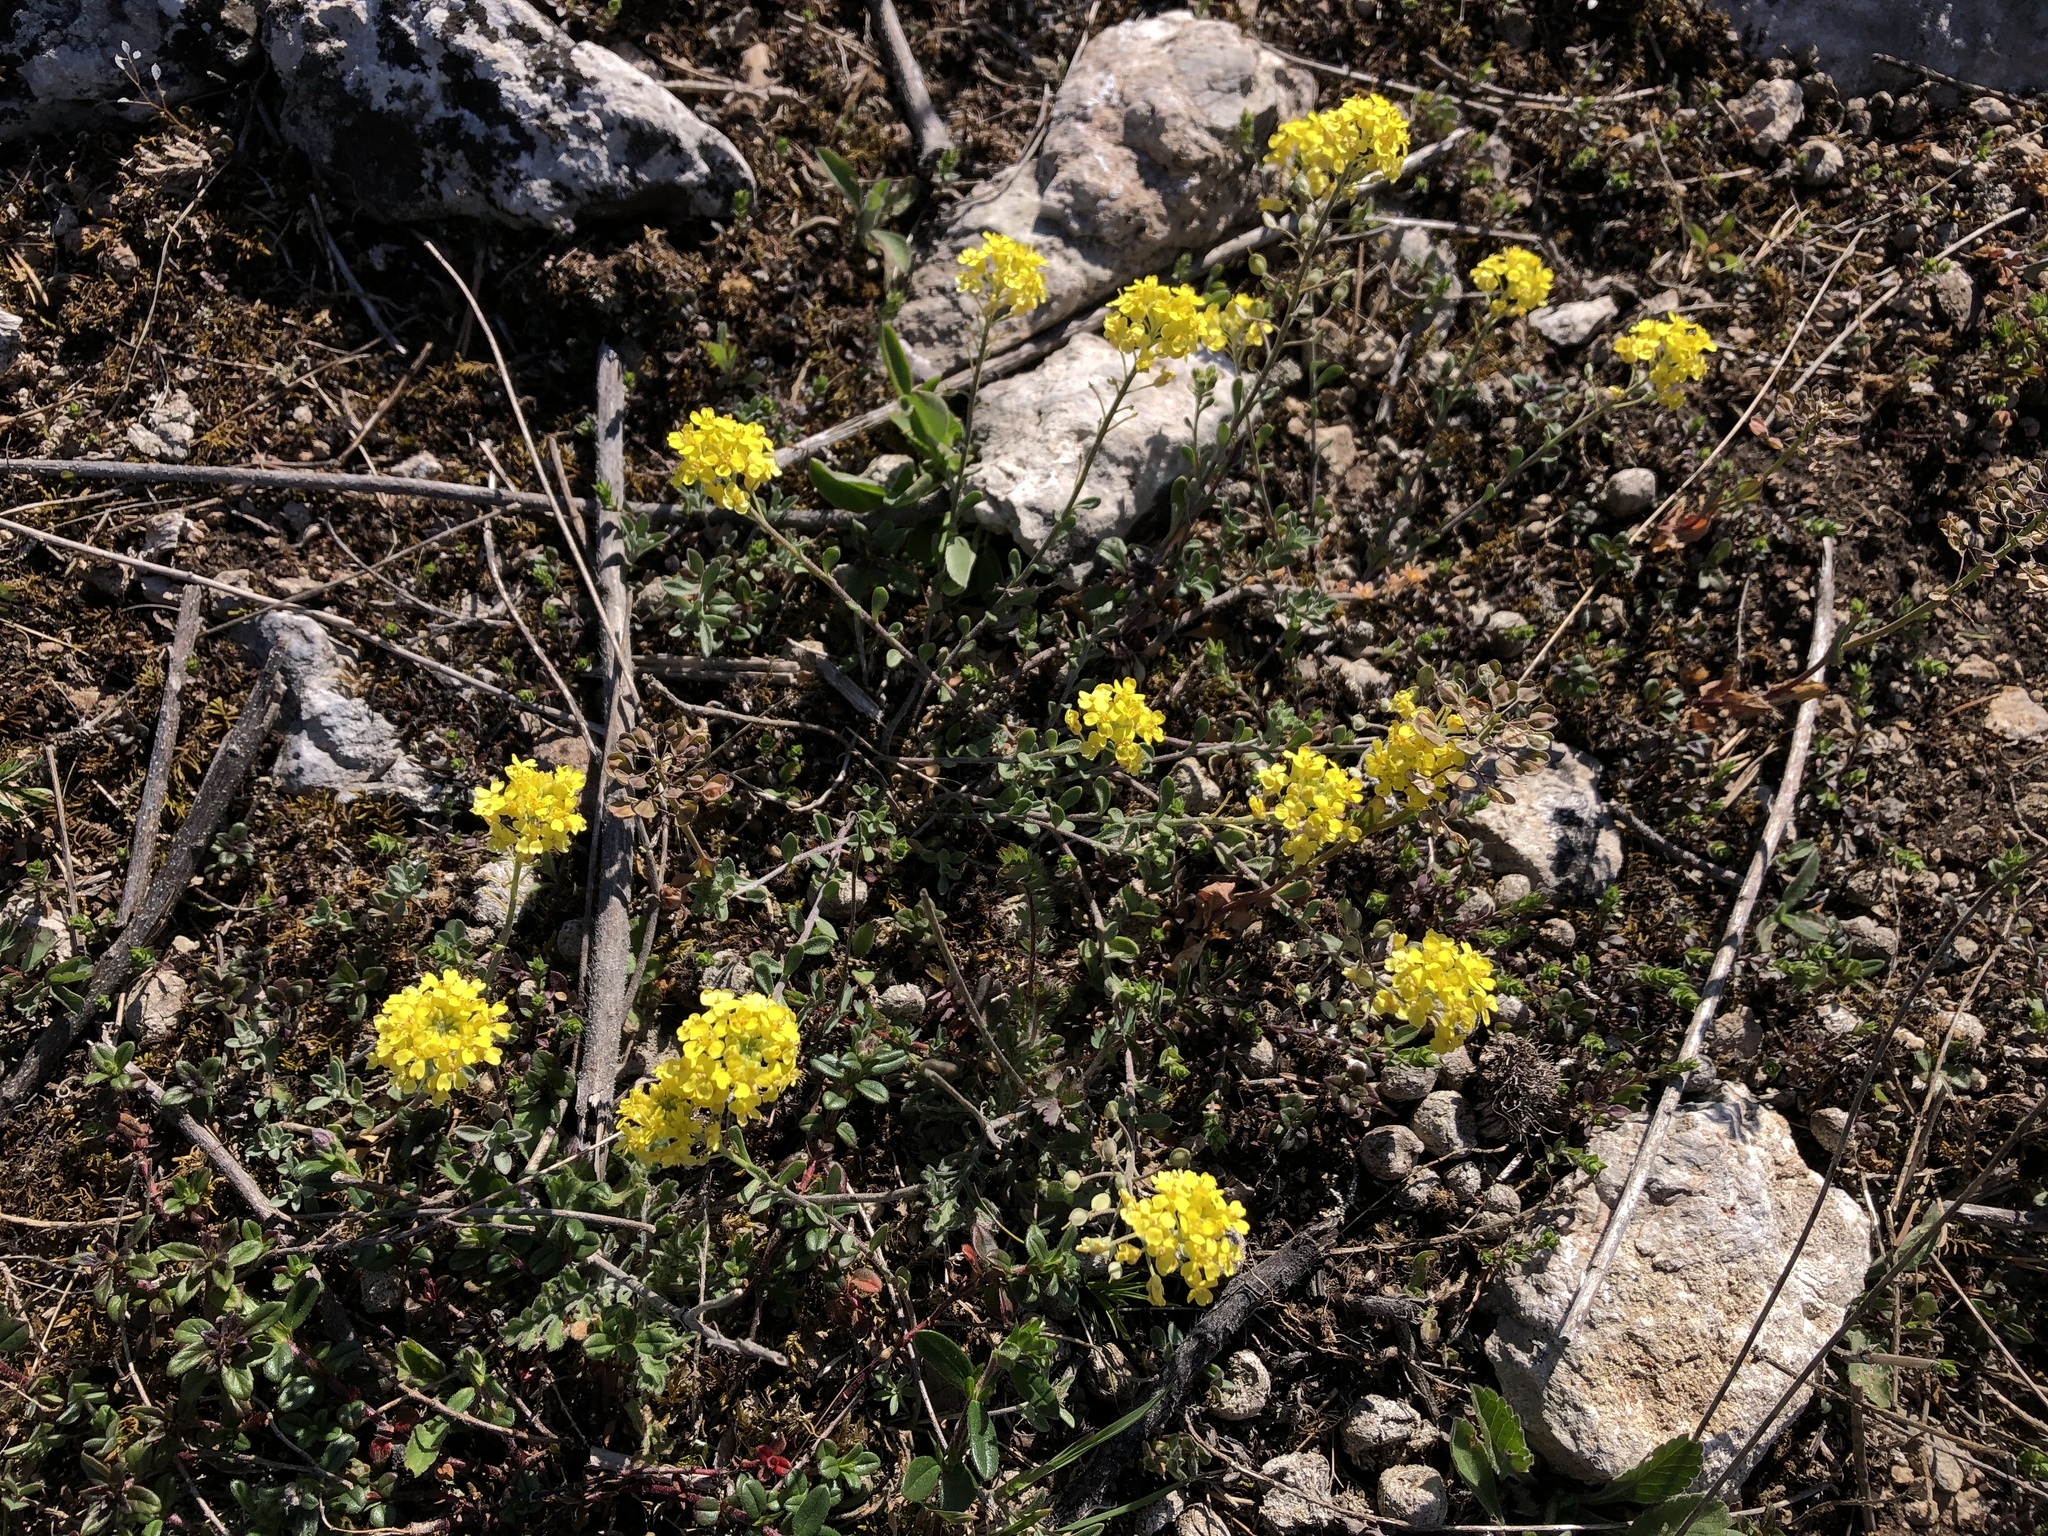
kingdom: Plantae
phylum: Tracheophyta
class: Magnoliopsida
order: Brassicales
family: Brassicaceae
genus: Alyssum
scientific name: Alyssum gmelinii
